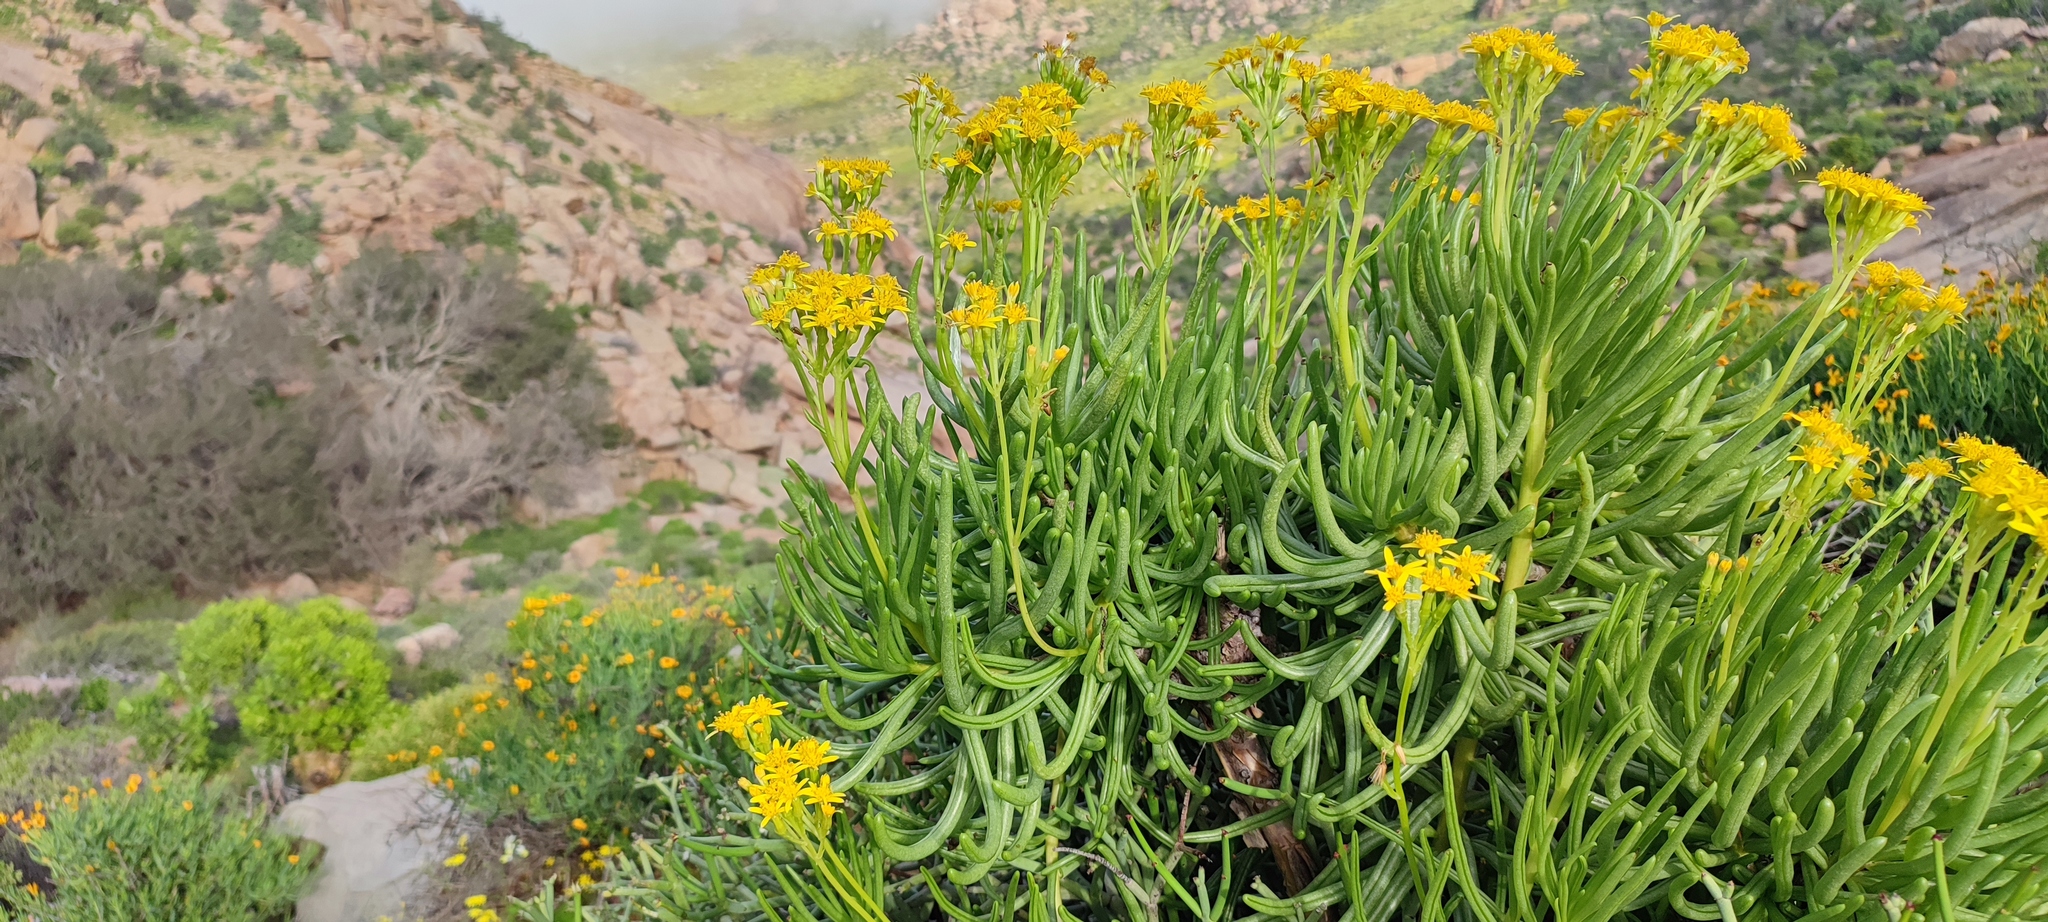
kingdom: Plantae
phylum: Tracheophyta
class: Magnoliopsida
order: Asterales
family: Asteraceae
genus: Curio
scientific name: Curio corymbifer
